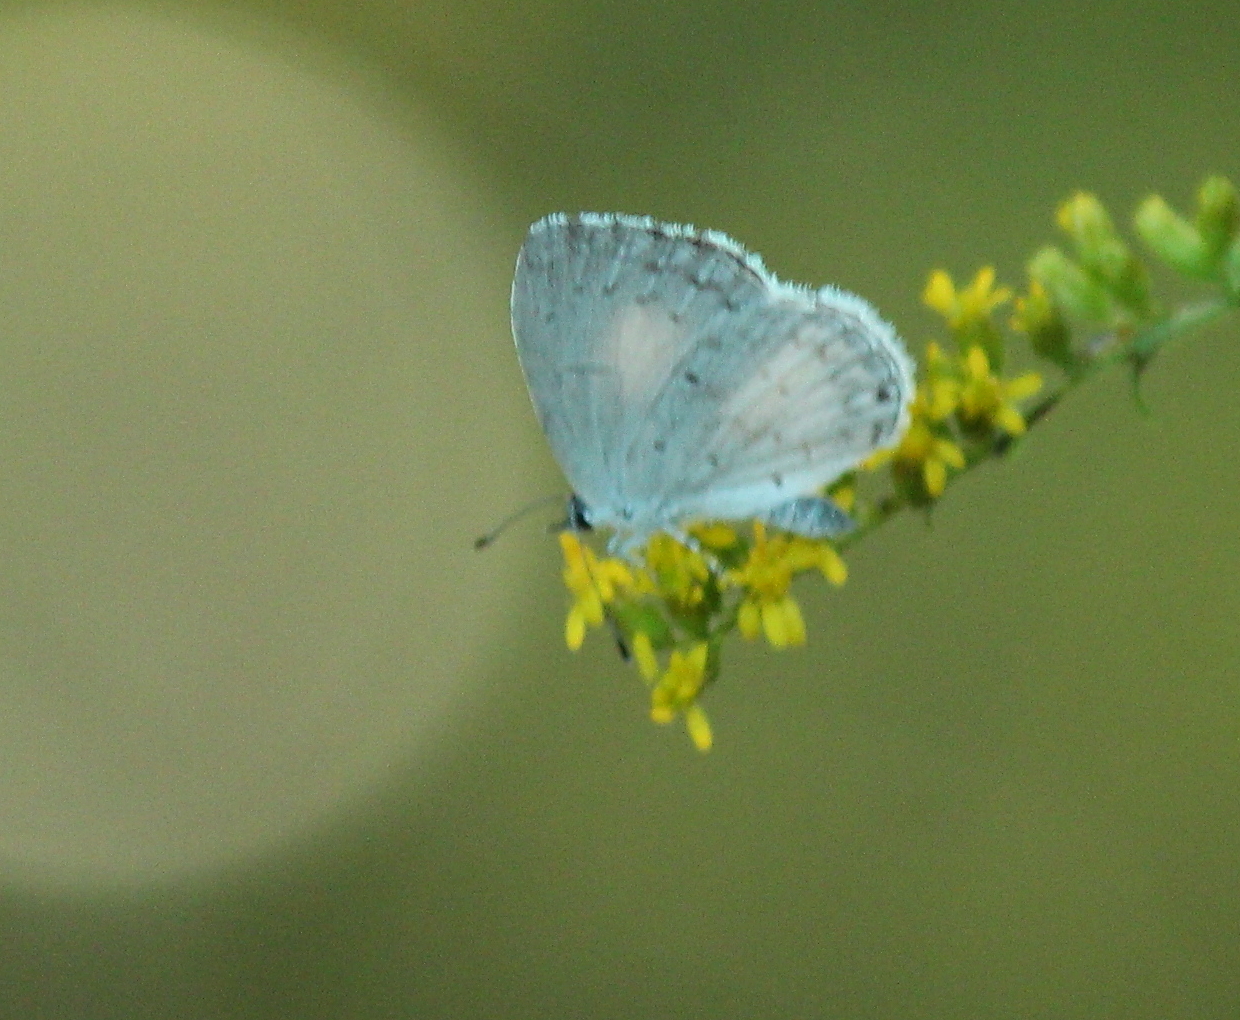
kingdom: Animalia
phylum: Arthropoda
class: Insecta
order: Lepidoptera
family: Lycaenidae
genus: Cyaniris
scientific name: Cyaniris neglecta
